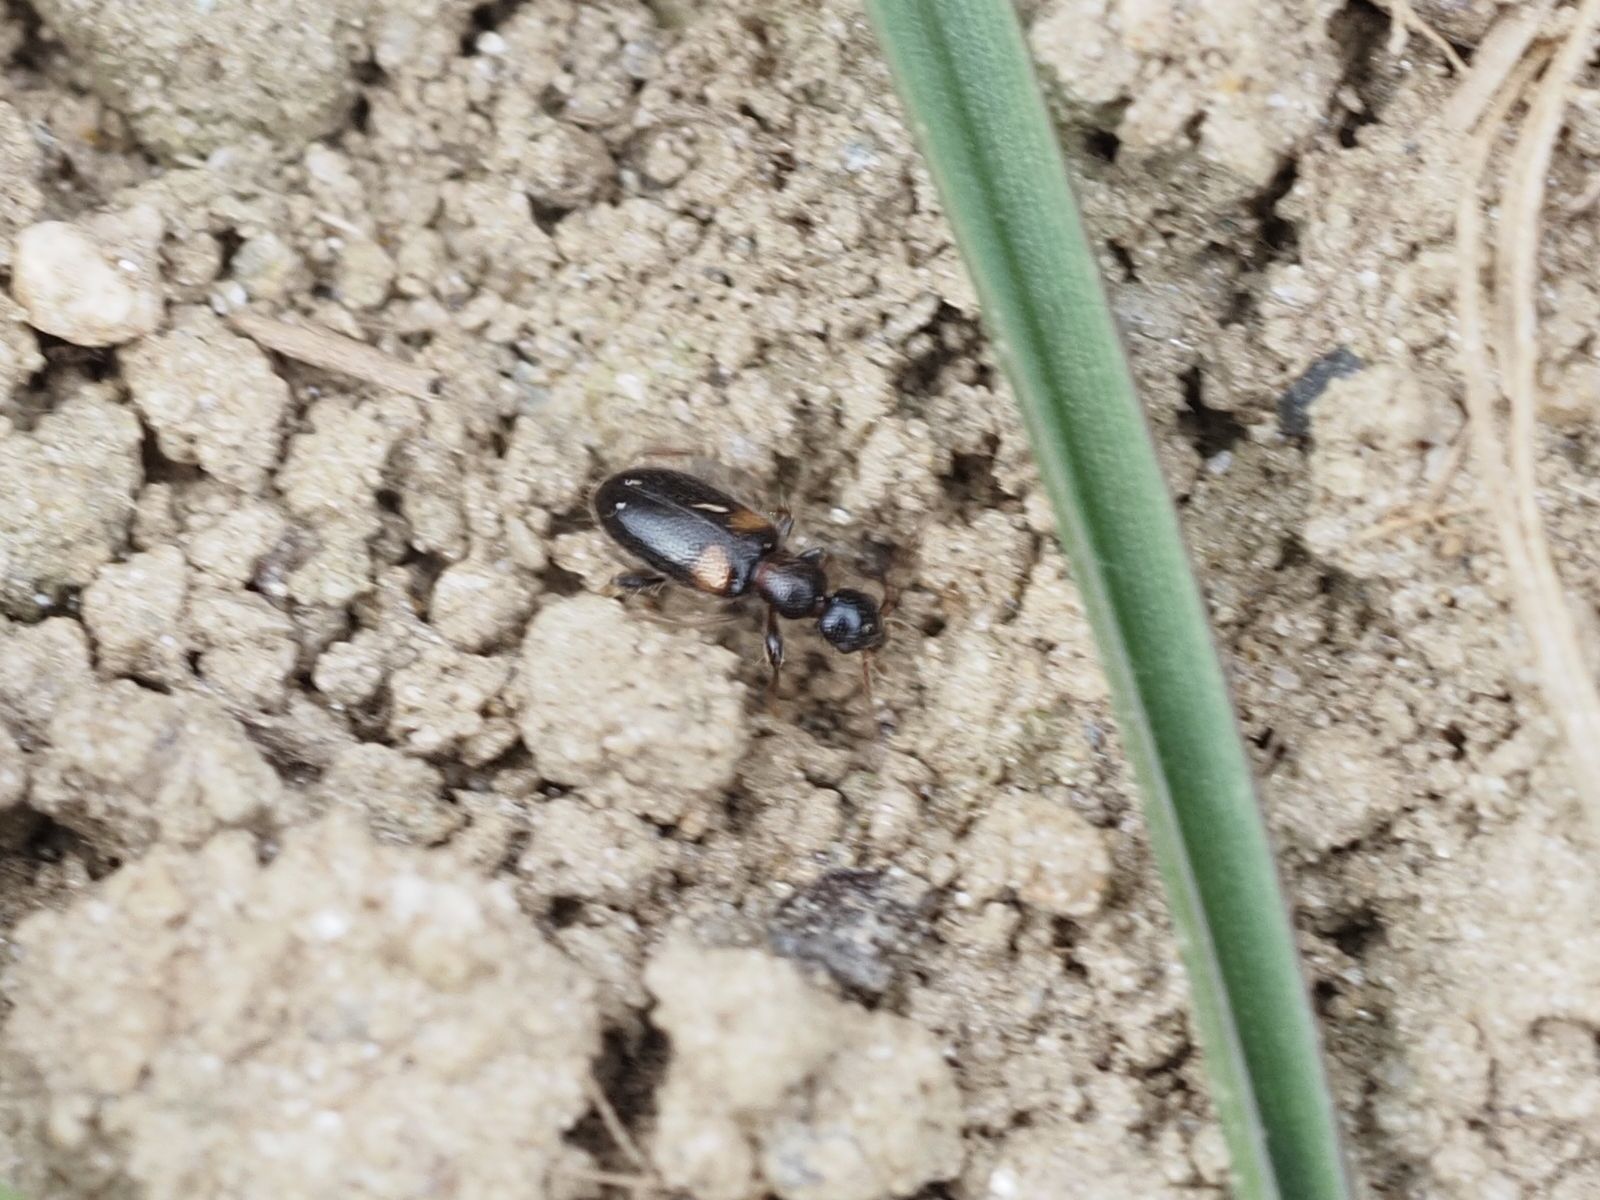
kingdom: Animalia
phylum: Arthropoda
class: Insecta
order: Coleoptera
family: Anthicidae
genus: Hirticollis
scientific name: Hirticollis hispidus
